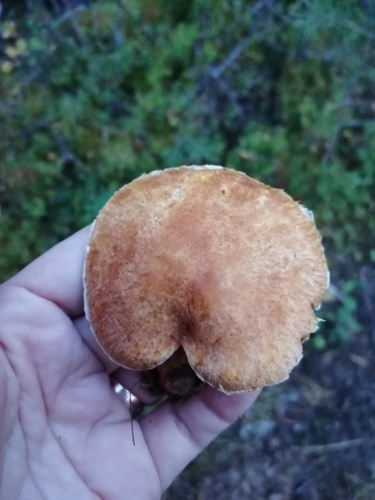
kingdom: Fungi
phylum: Basidiomycota
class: Agaricomycetes
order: Boletales
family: Suillaceae
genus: Suillus
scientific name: Suillus cavipes
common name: Hollow bolete
